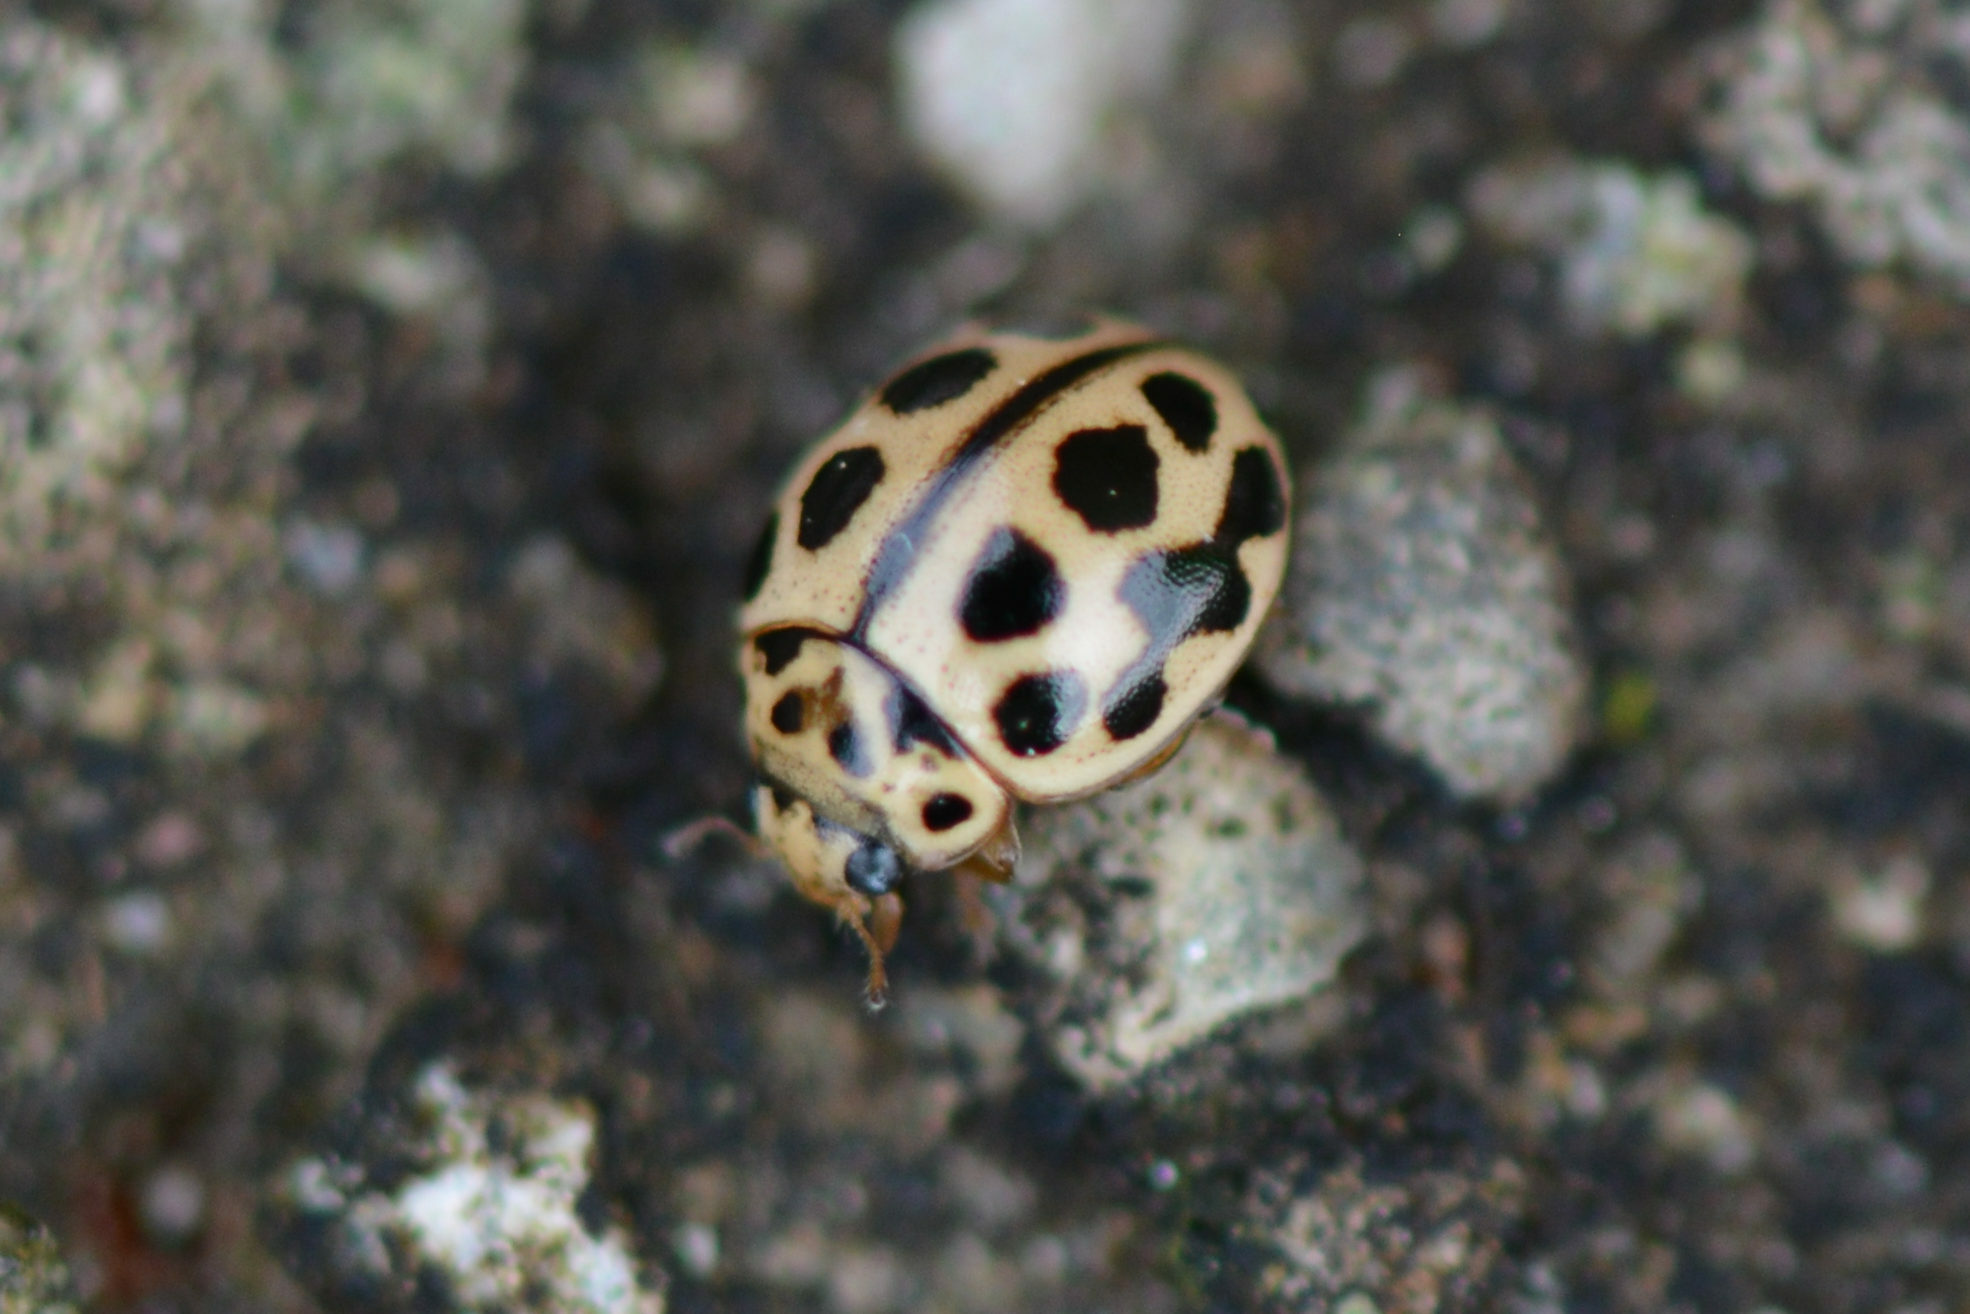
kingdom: Animalia
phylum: Arthropoda
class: Insecta
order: Coleoptera
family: Coccinellidae
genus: Tytthaspis
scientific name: Tytthaspis sedecimpunctata
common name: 16-spot ladybird
